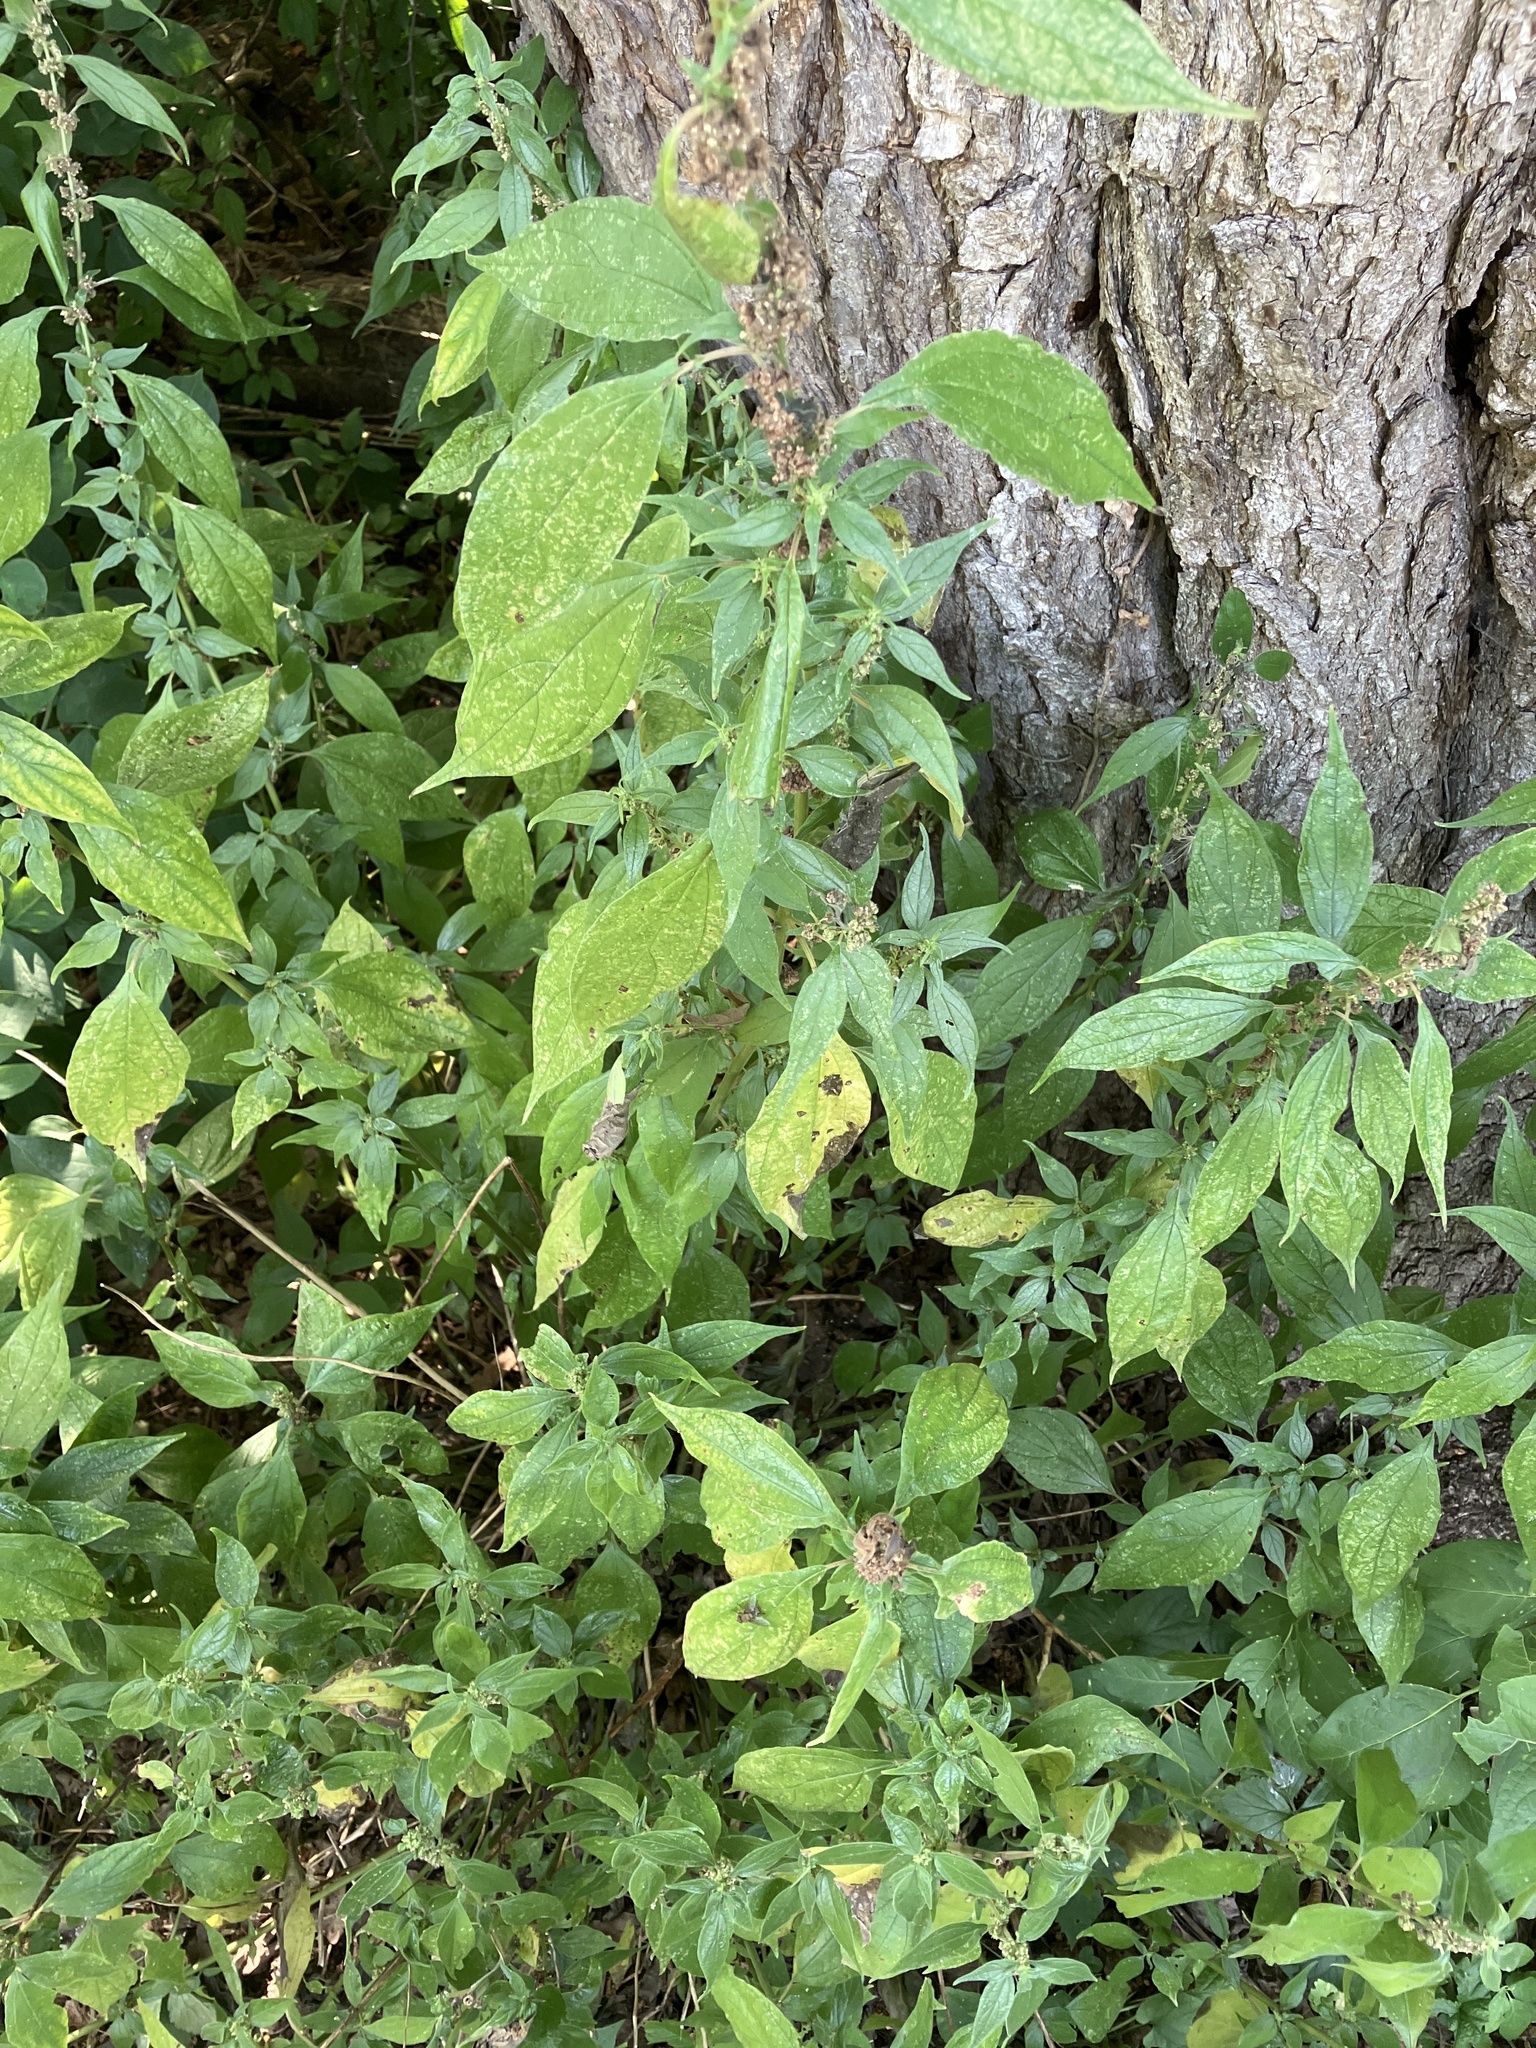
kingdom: Plantae
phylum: Tracheophyta
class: Magnoliopsida
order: Rosales
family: Urticaceae
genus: Parietaria
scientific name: Parietaria officinalis
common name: Eastern pellitory-of-the-wall
